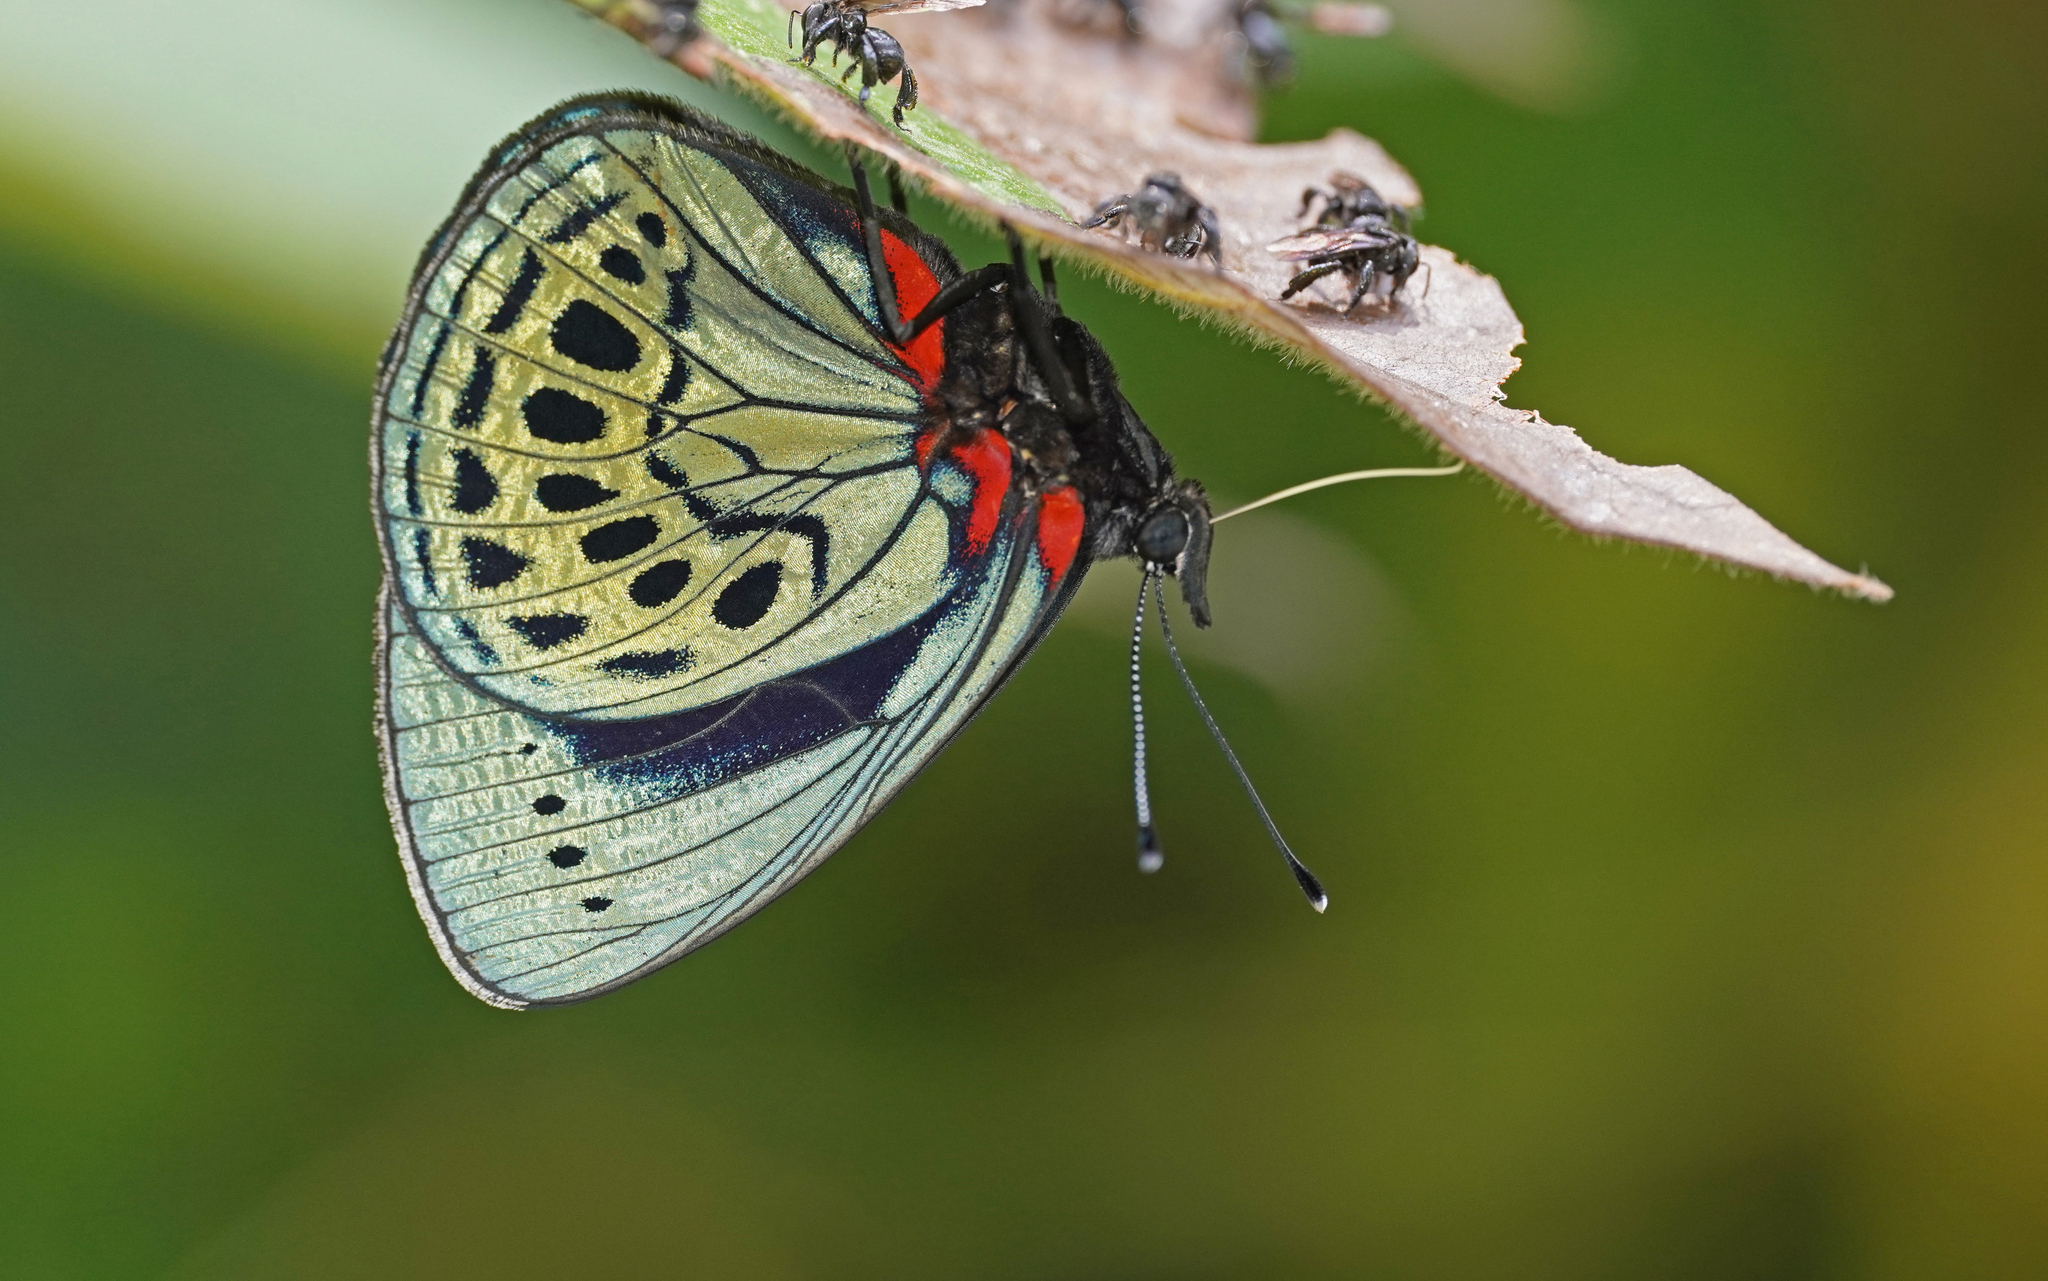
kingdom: Animalia
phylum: Arthropoda
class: Insecta
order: Lepidoptera
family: Nymphalidae
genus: Asterope
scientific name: Asterope leprieuri
